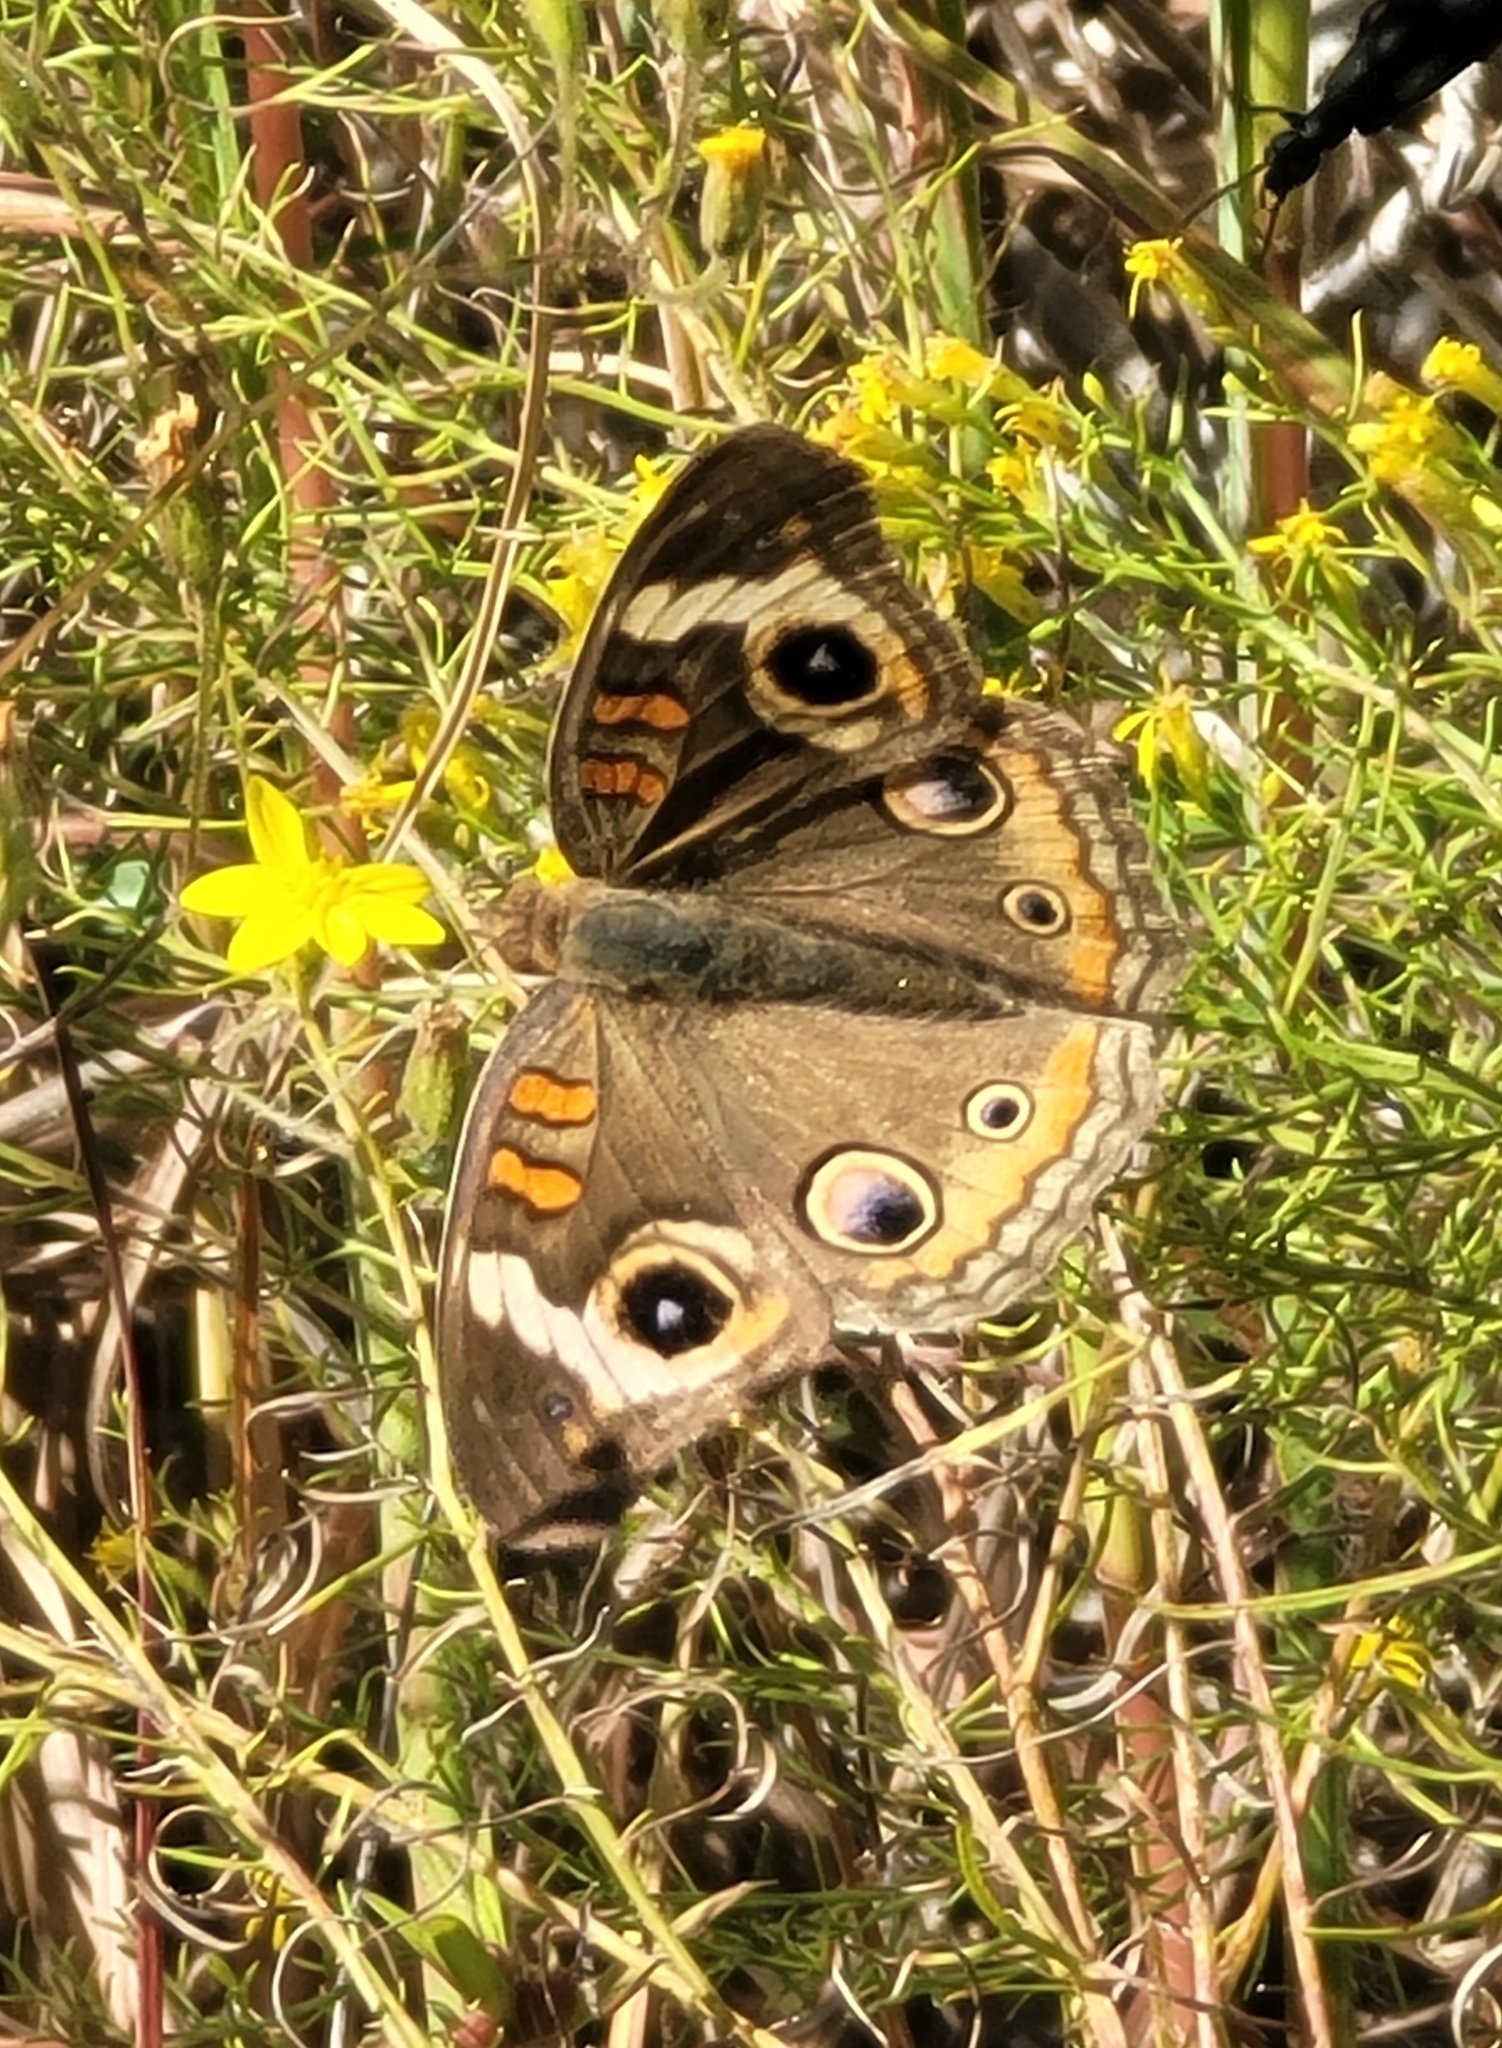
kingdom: Animalia
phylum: Arthropoda
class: Insecta
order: Lepidoptera
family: Nymphalidae
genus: Junonia
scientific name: Junonia coenia
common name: Common buckeye
